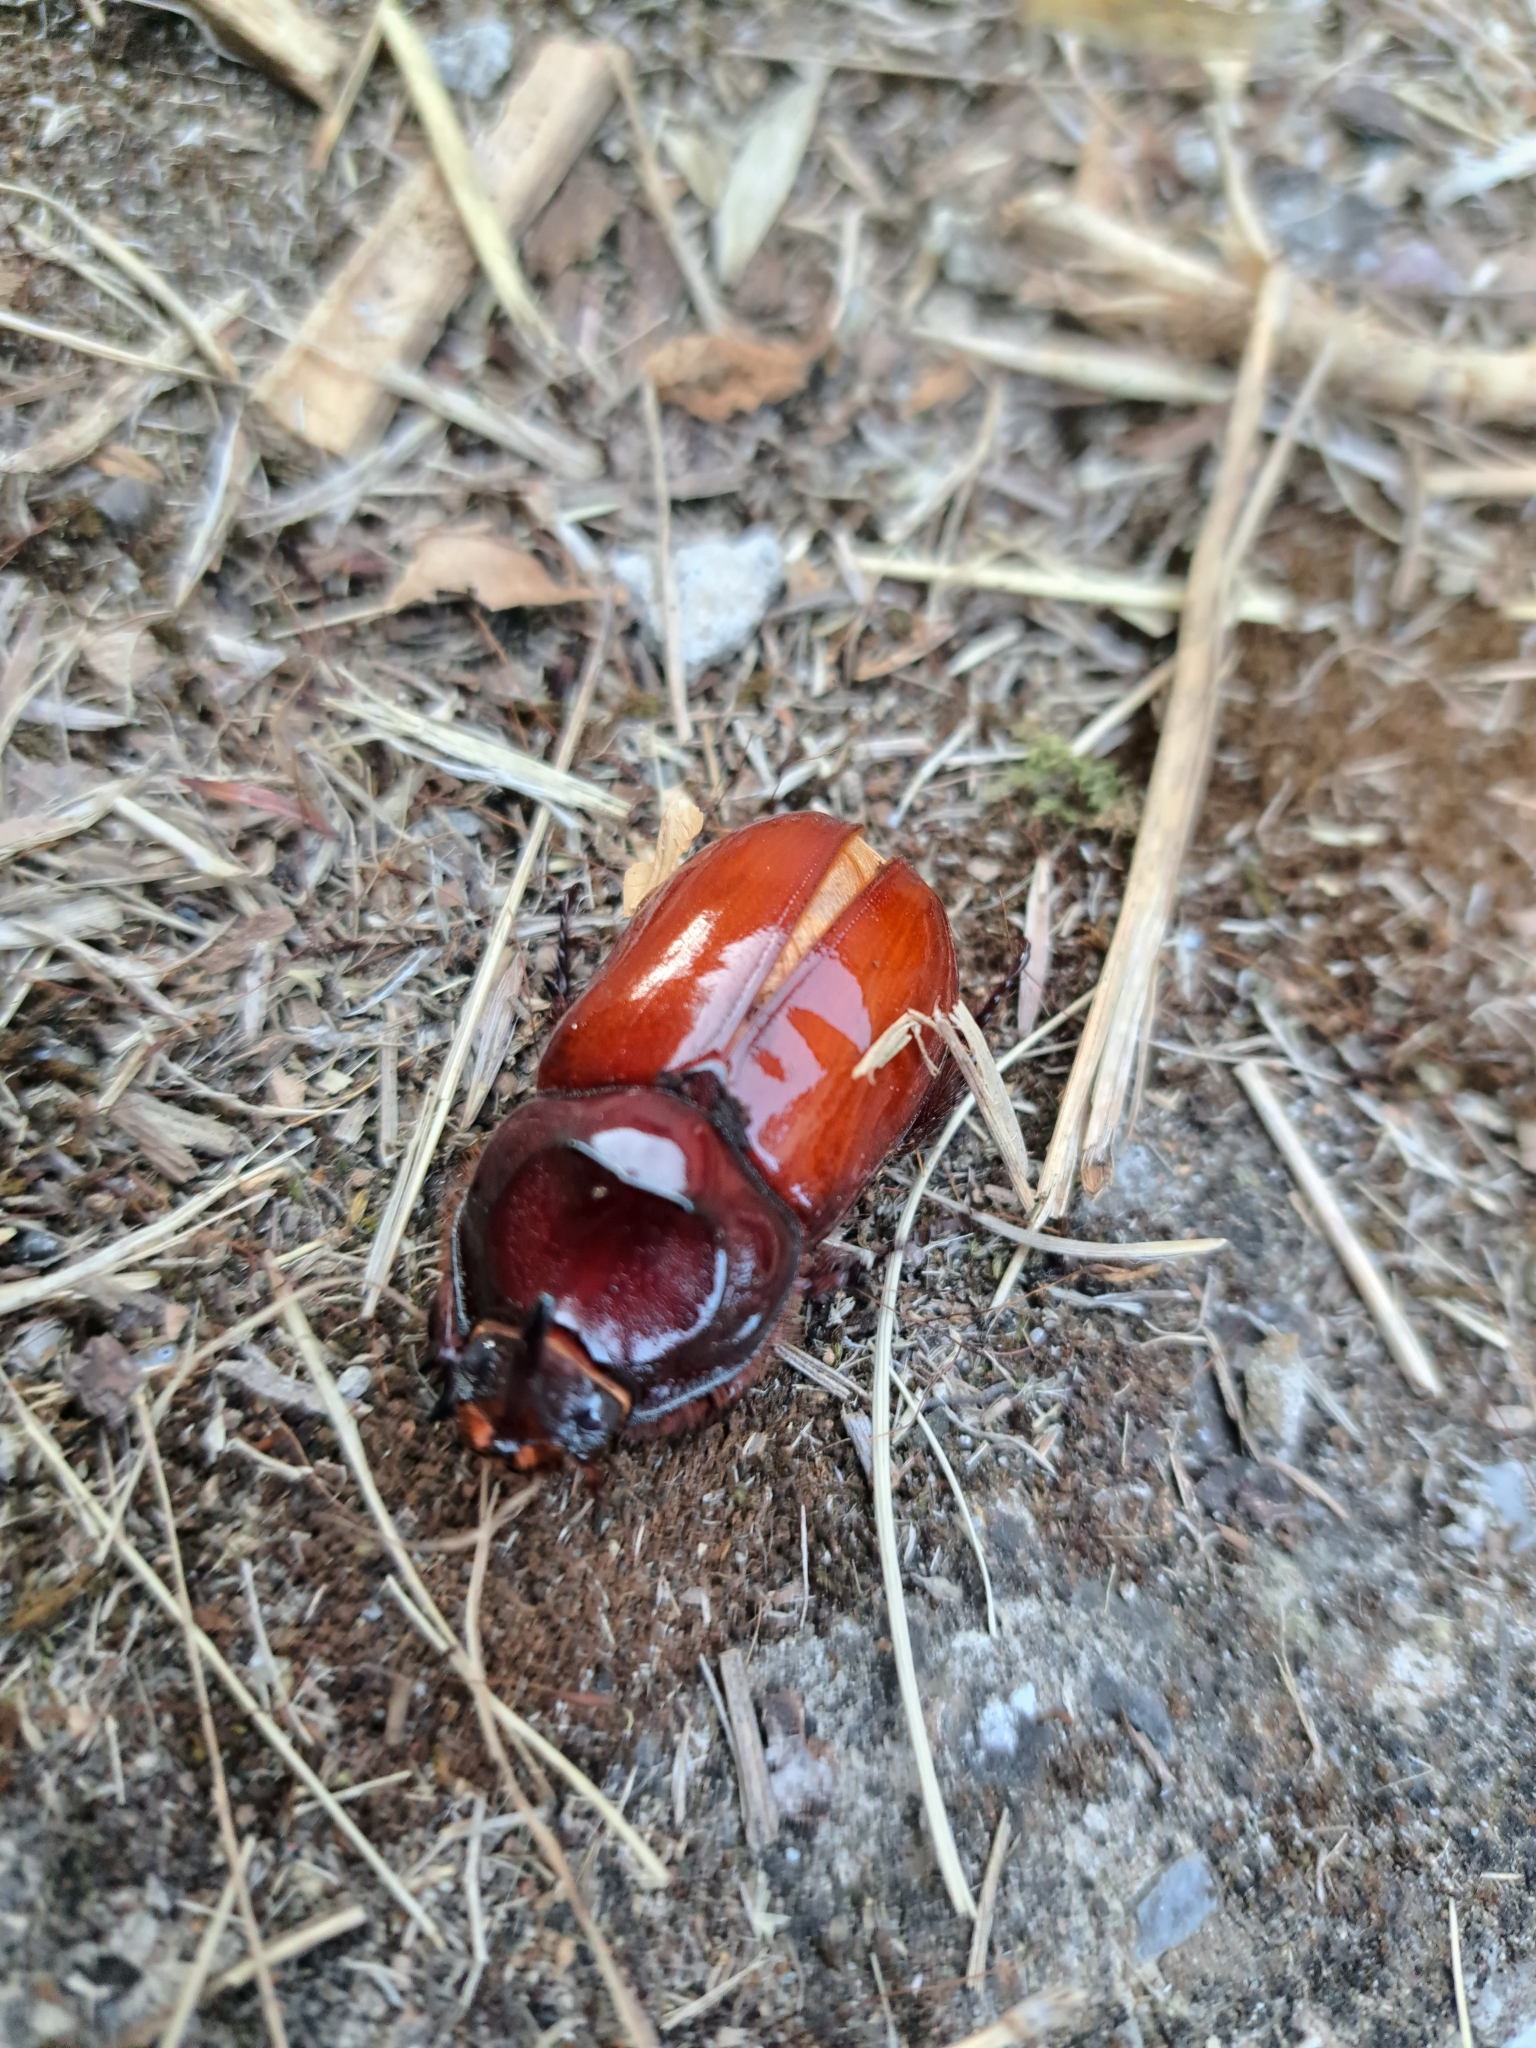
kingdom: Animalia
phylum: Arthropoda
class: Insecta
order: Coleoptera
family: Scarabaeidae
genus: Oryctes
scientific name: Oryctes nasicornis
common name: European rhinoceros beetle
